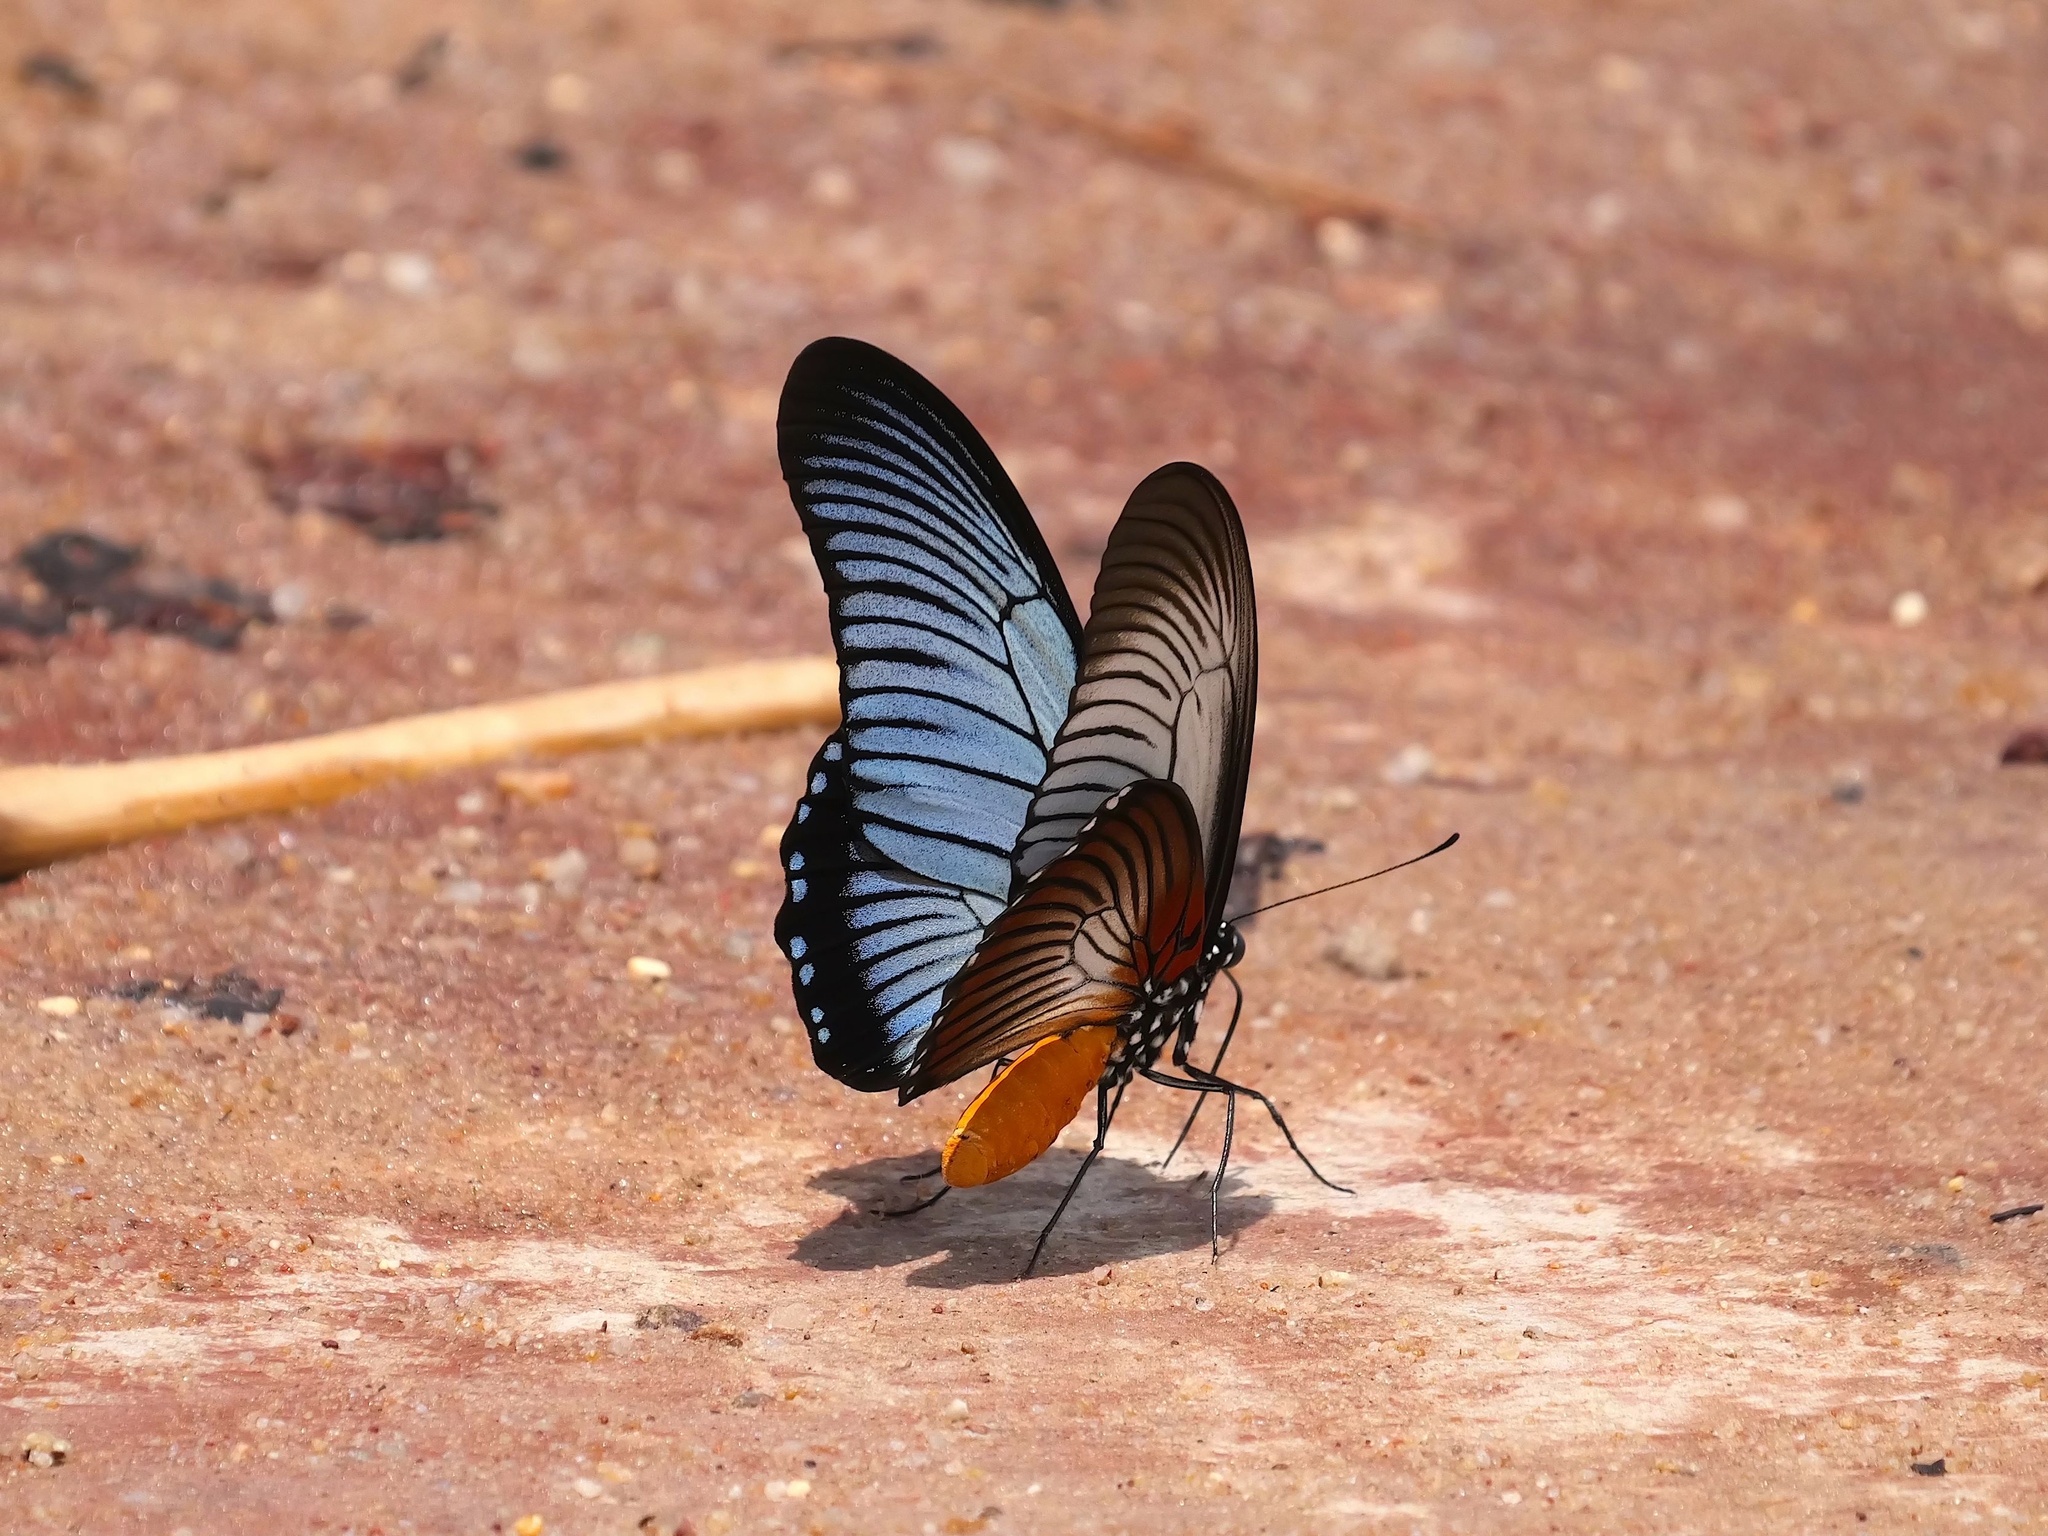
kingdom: Animalia
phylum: Arthropoda
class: Insecta
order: Lepidoptera
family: Papilionidae
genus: Papilio
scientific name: Papilio zalmoxis
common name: Giant blue swallowtail
